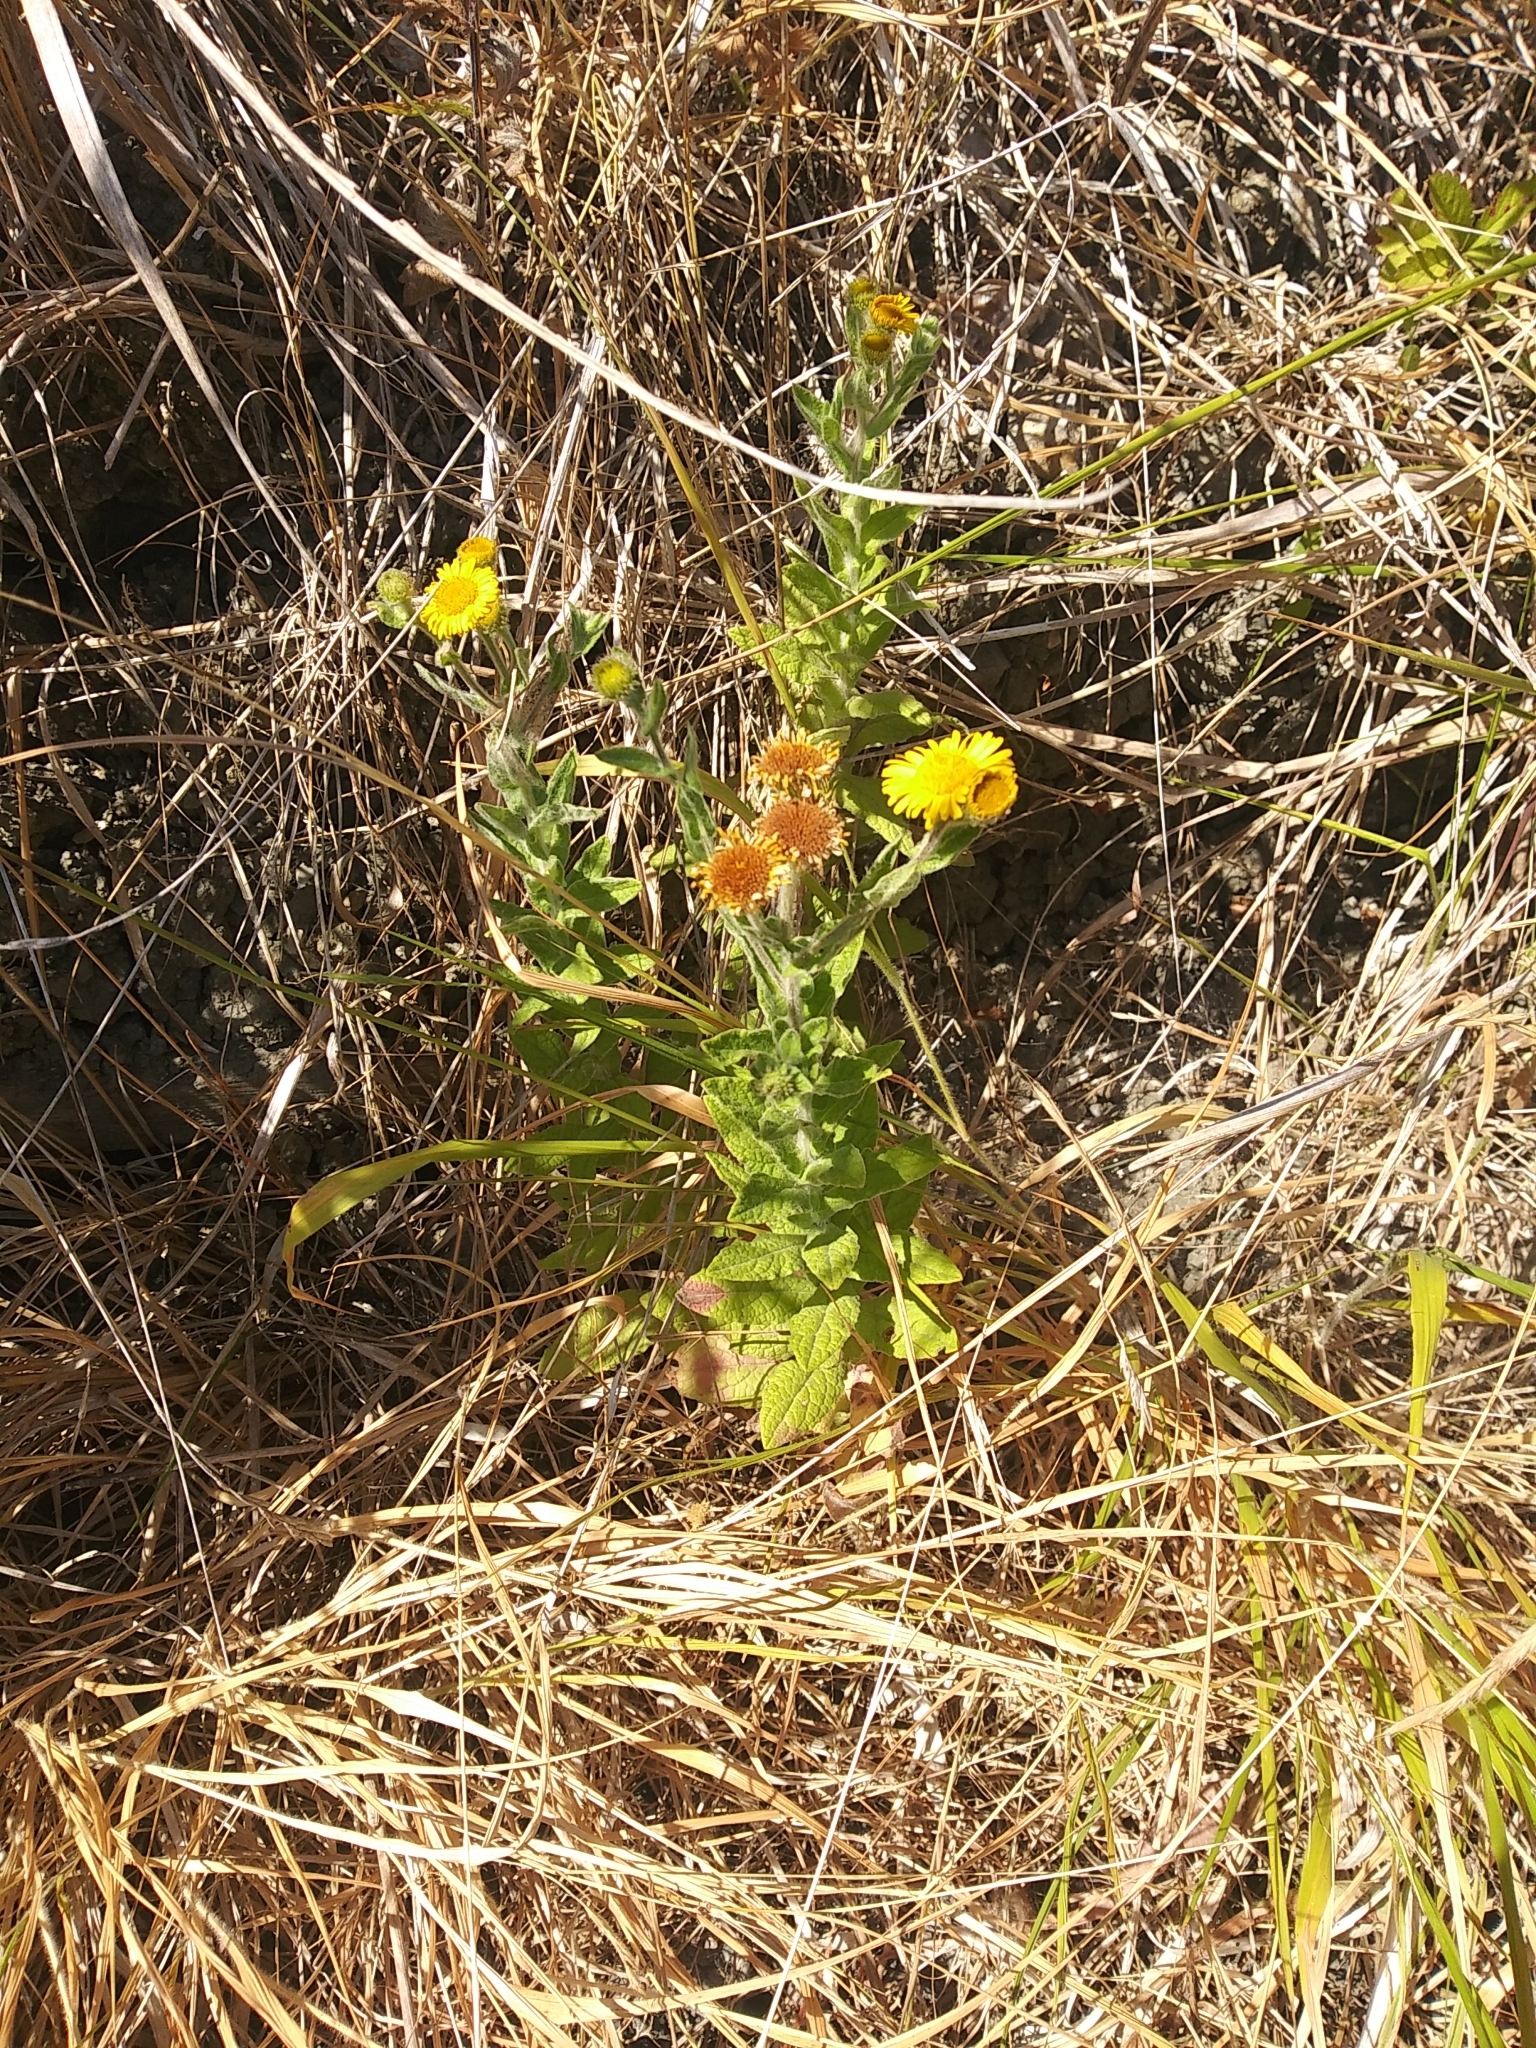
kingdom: Plantae
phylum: Tracheophyta
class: Magnoliopsida
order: Asterales
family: Asteraceae
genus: Pulicaria
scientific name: Pulicaria dysenterica
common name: Common fleabane
